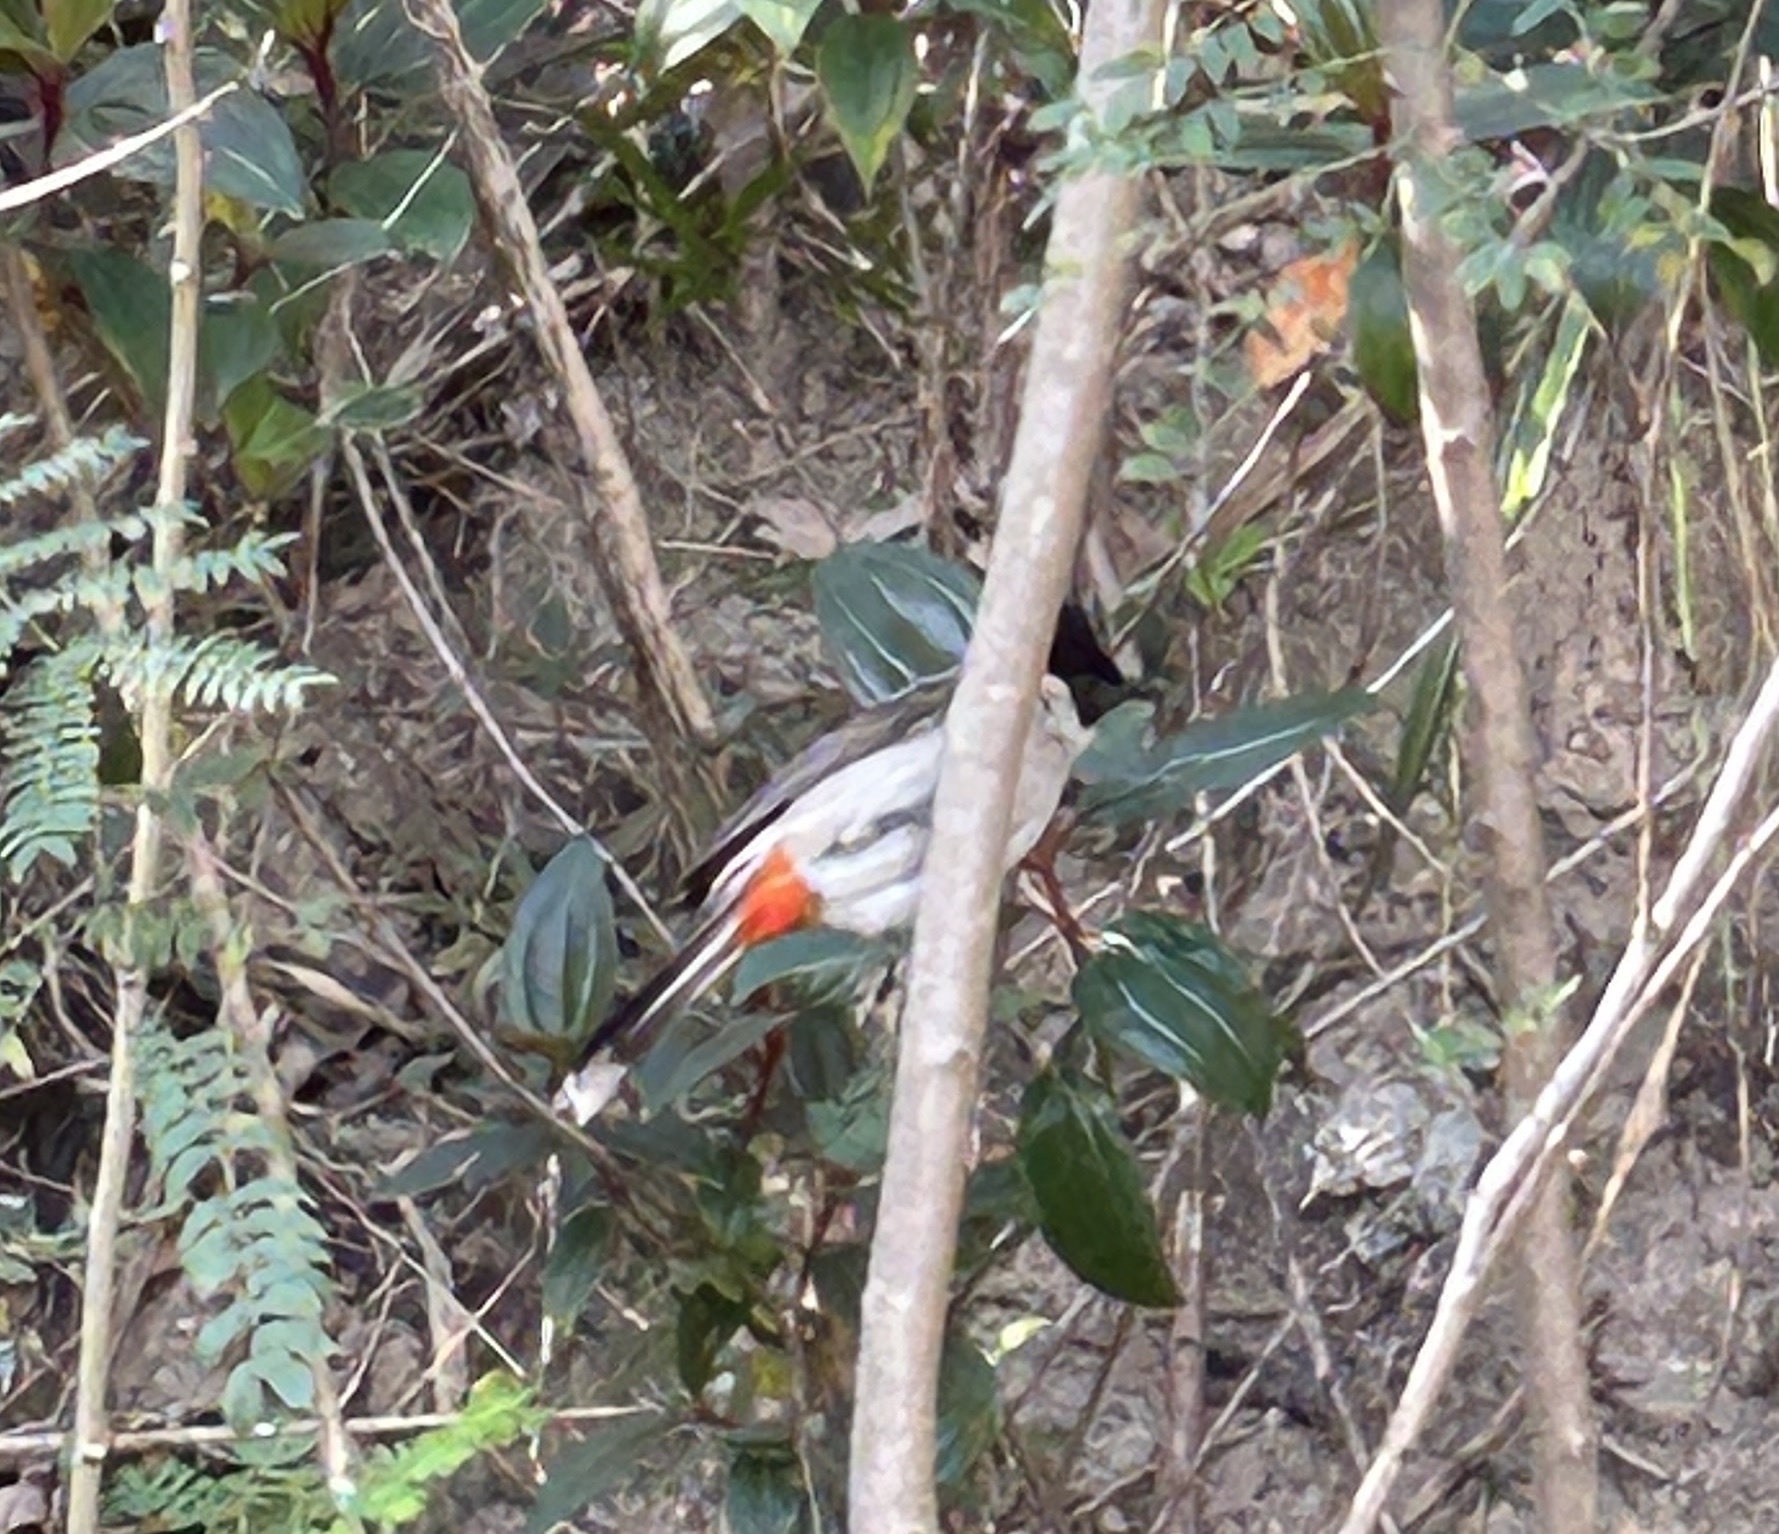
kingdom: Animalia
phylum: Chordata
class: Aves
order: Passeriformes
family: Pycnonotidae
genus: Pycnonotus
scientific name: Pycnonotus aurigaster
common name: Sooty-headed bulbul
